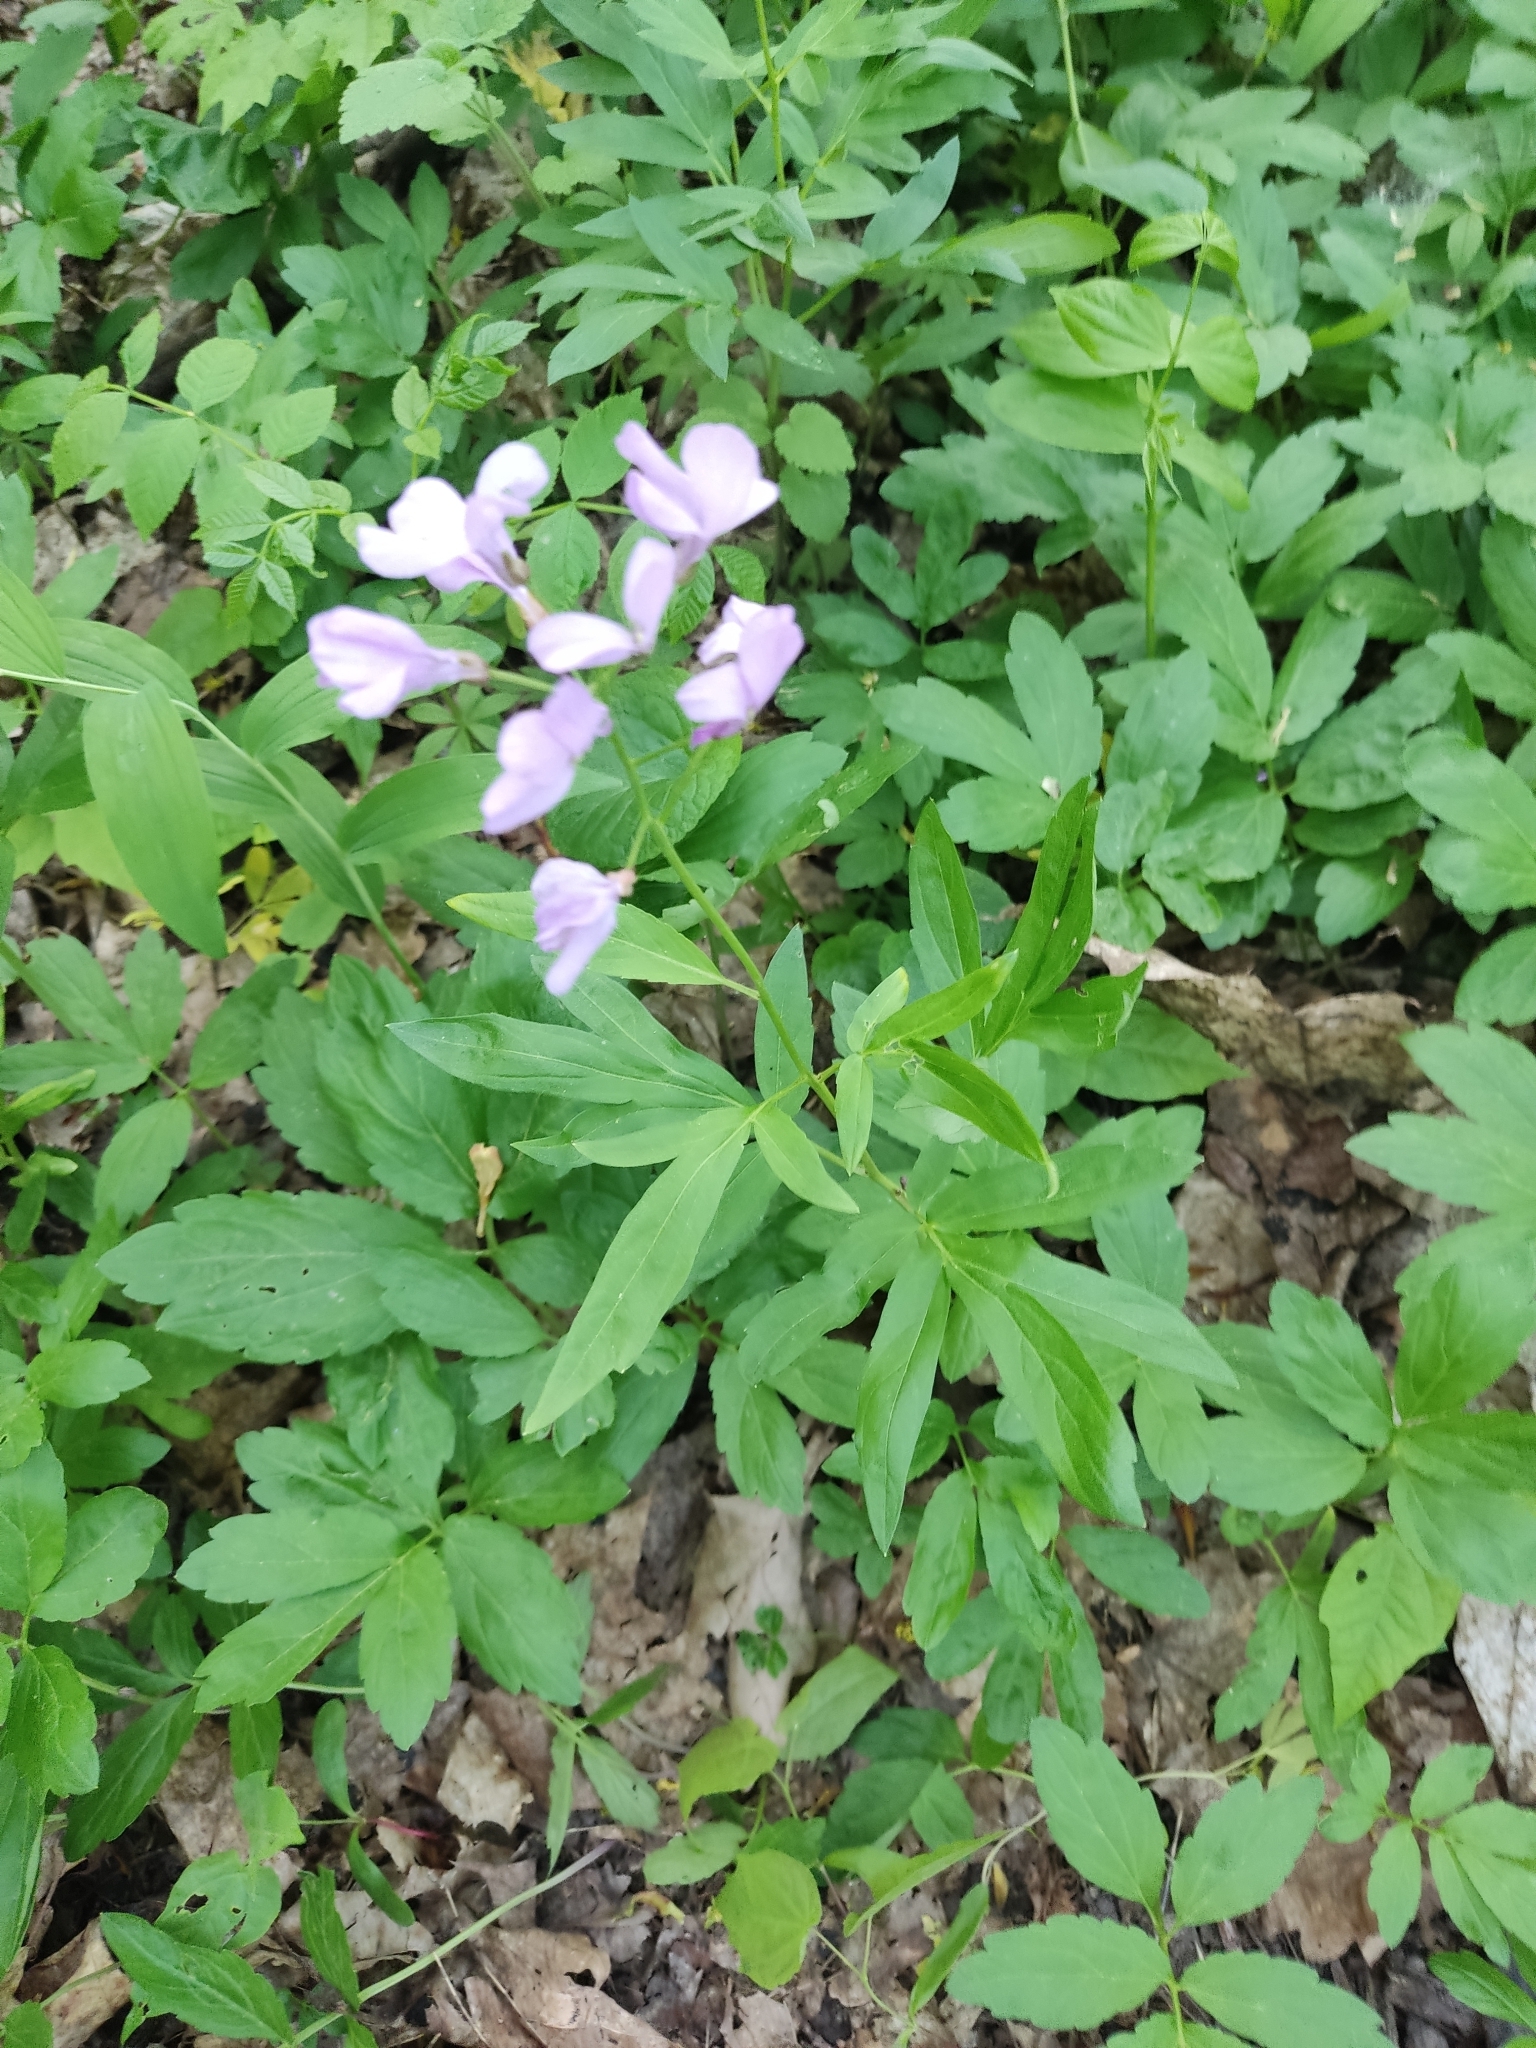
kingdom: Plantae
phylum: Tracheophyta
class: Magnoliopsida
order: Brassicales
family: Brassicaceae
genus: Cardamine
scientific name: Cardamine bulbifera
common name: Coralroot bittercress
